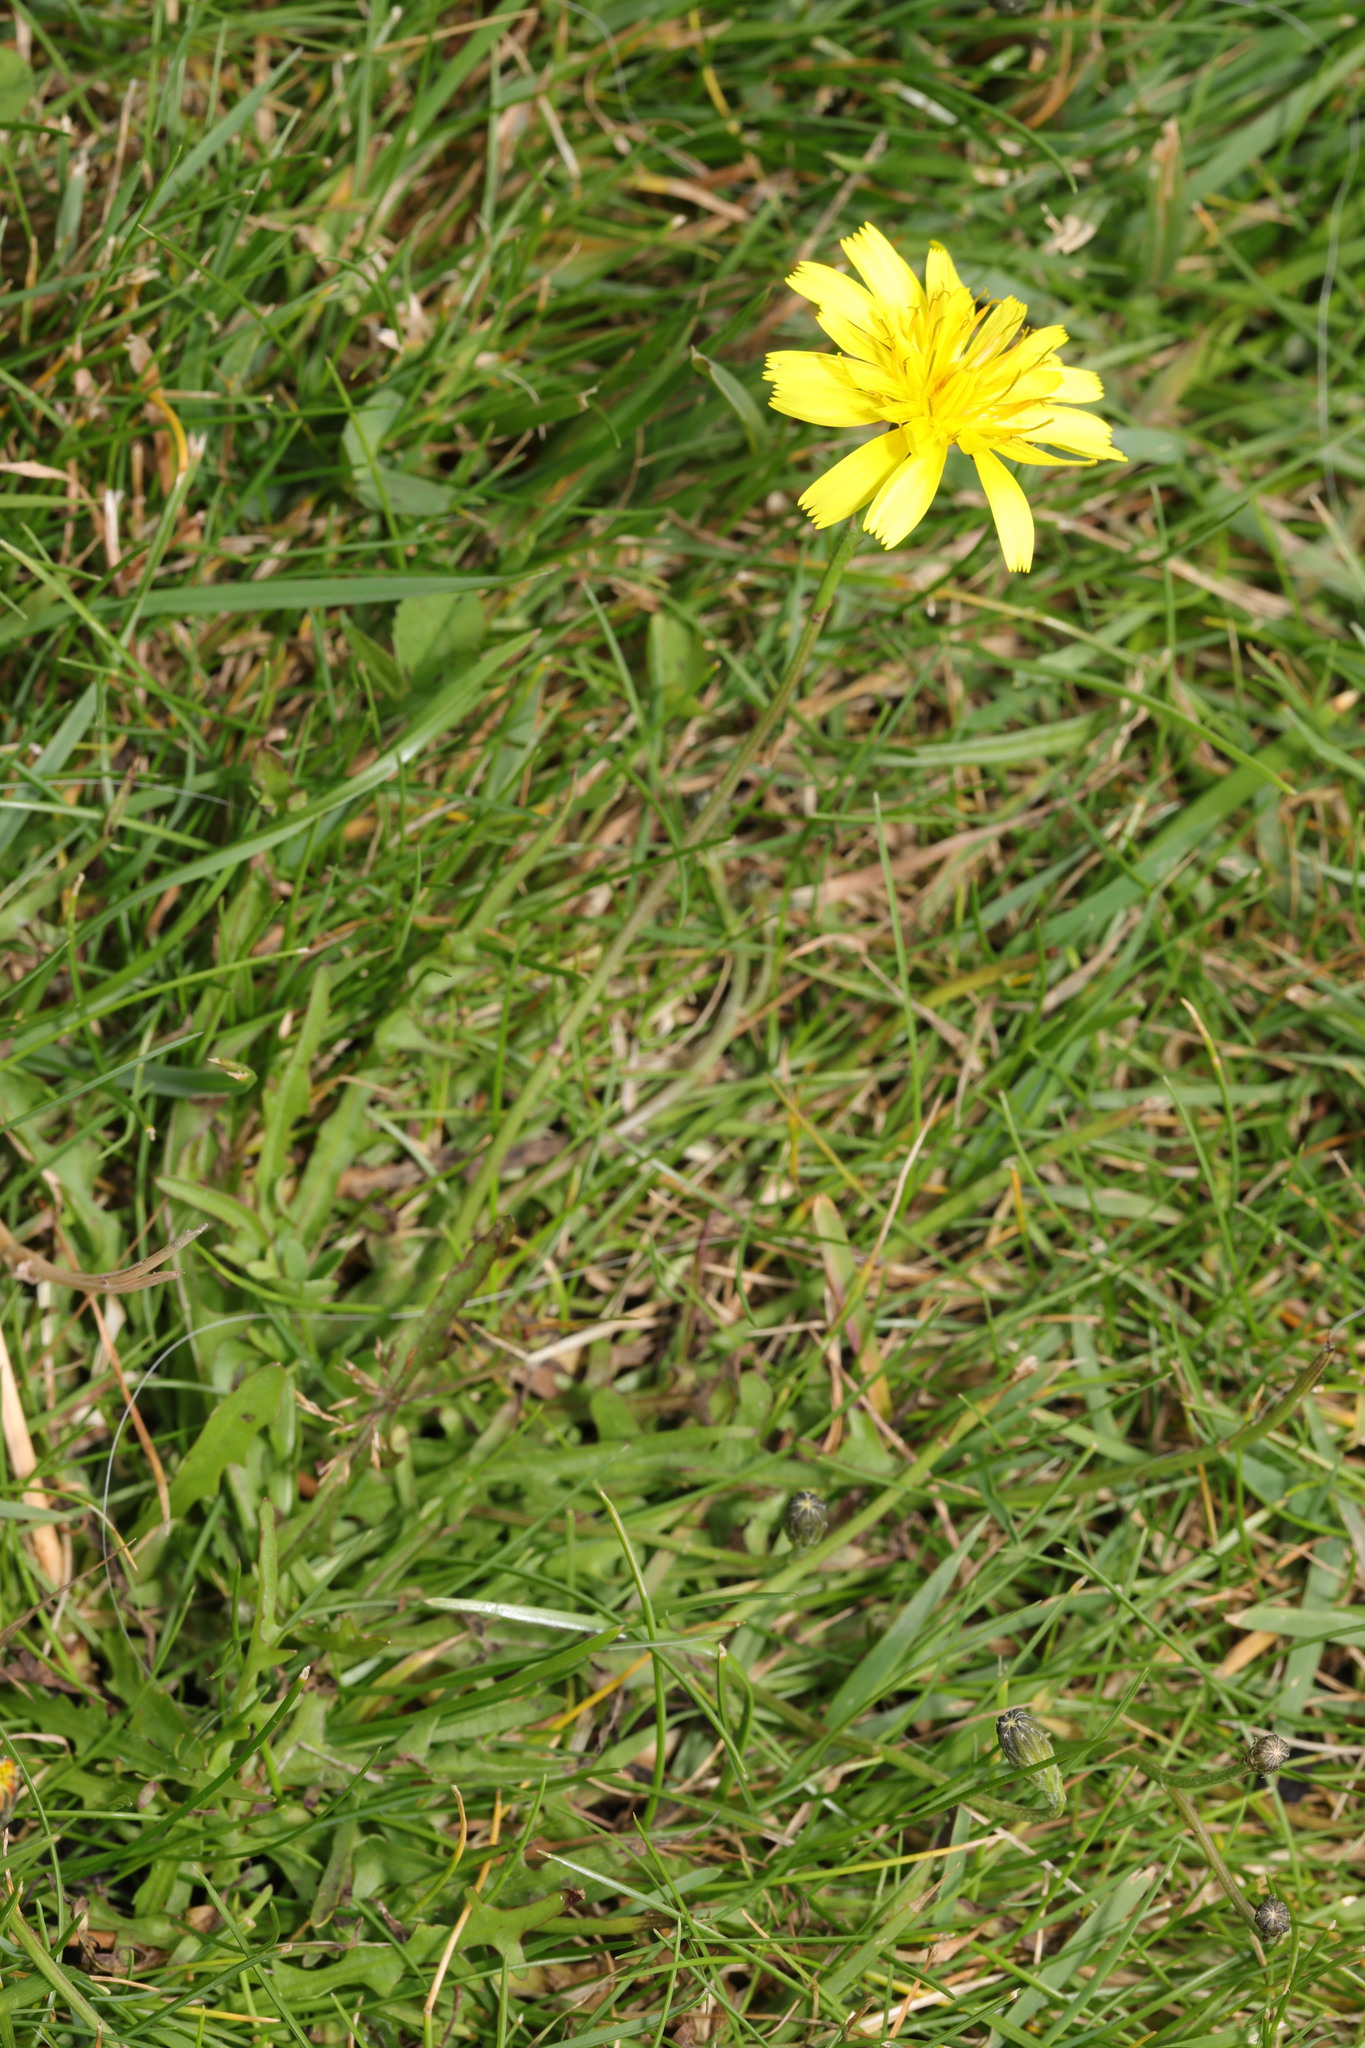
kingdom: Plantae
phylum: Tracheophyta
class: Magnoliopsida
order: Asterales
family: Asteraceae
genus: Scorzoneroides
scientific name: Scorzoneroides autumnalis
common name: Autumn hawkbit
